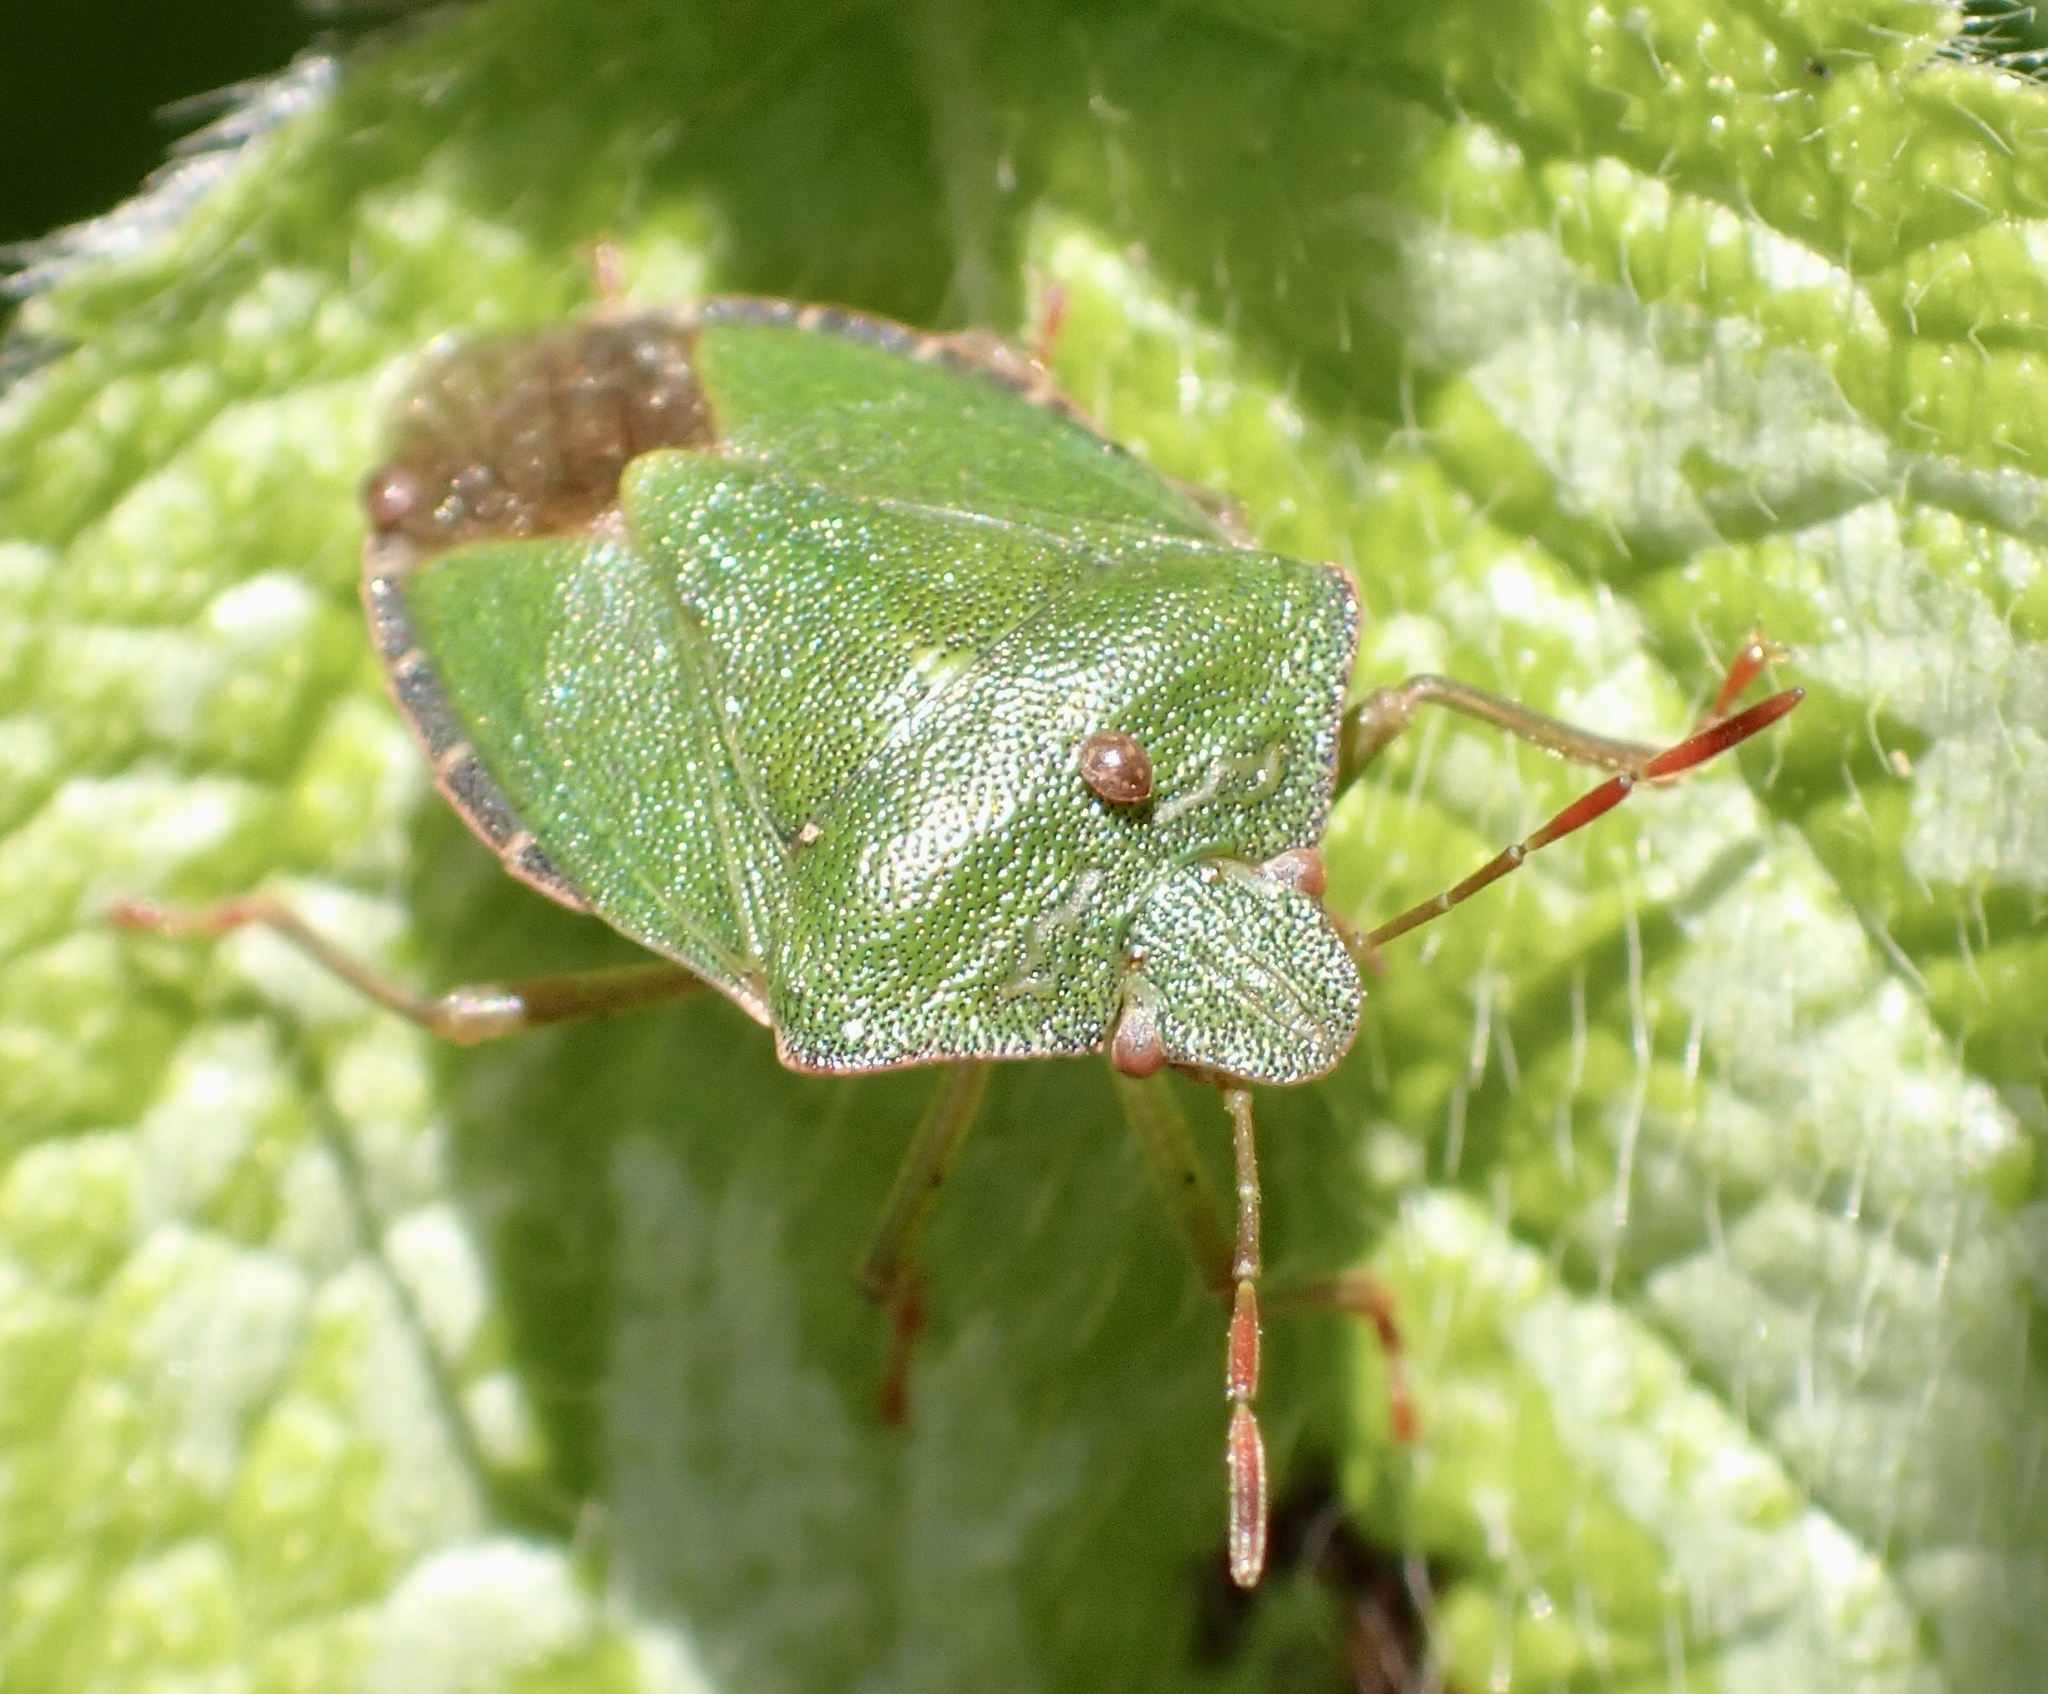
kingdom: Animalia
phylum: Arthropoda
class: Insecta
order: Hemiptera
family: Pentatomidae
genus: Palomena
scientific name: Palomena prasina
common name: Green shieldbug
